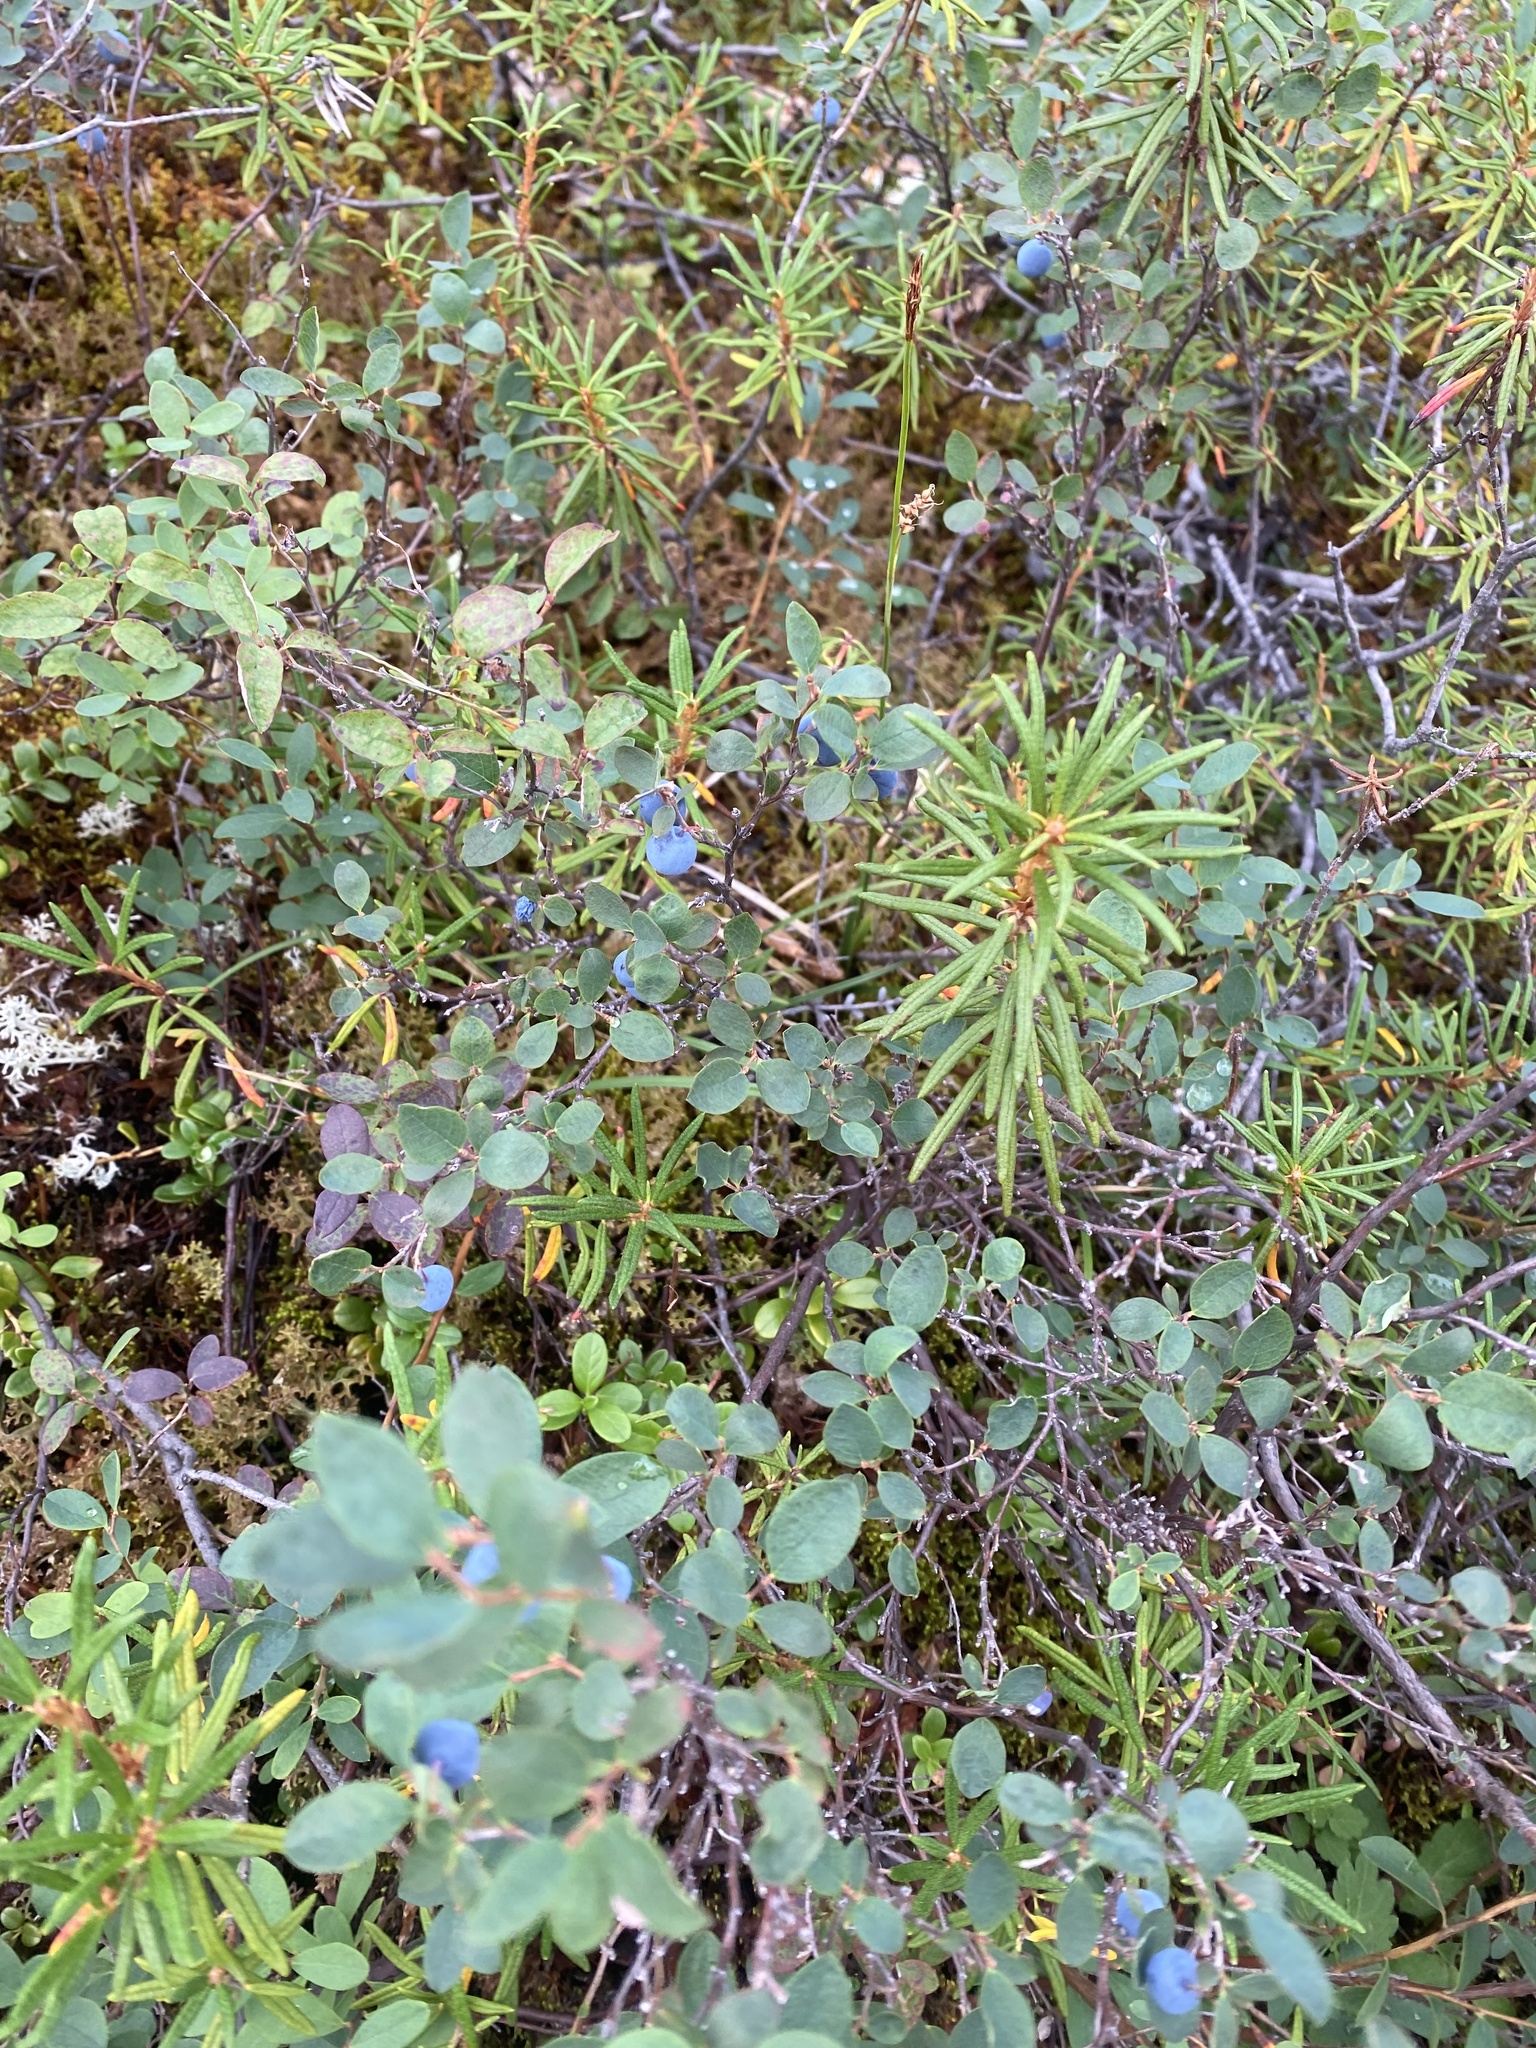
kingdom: Plantae
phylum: Tracheophyta
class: Magnoliopsida
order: Ericales
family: Ericaceae
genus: Vaccinium
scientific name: Vaccinium uliginosum
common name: Bog bilberry
